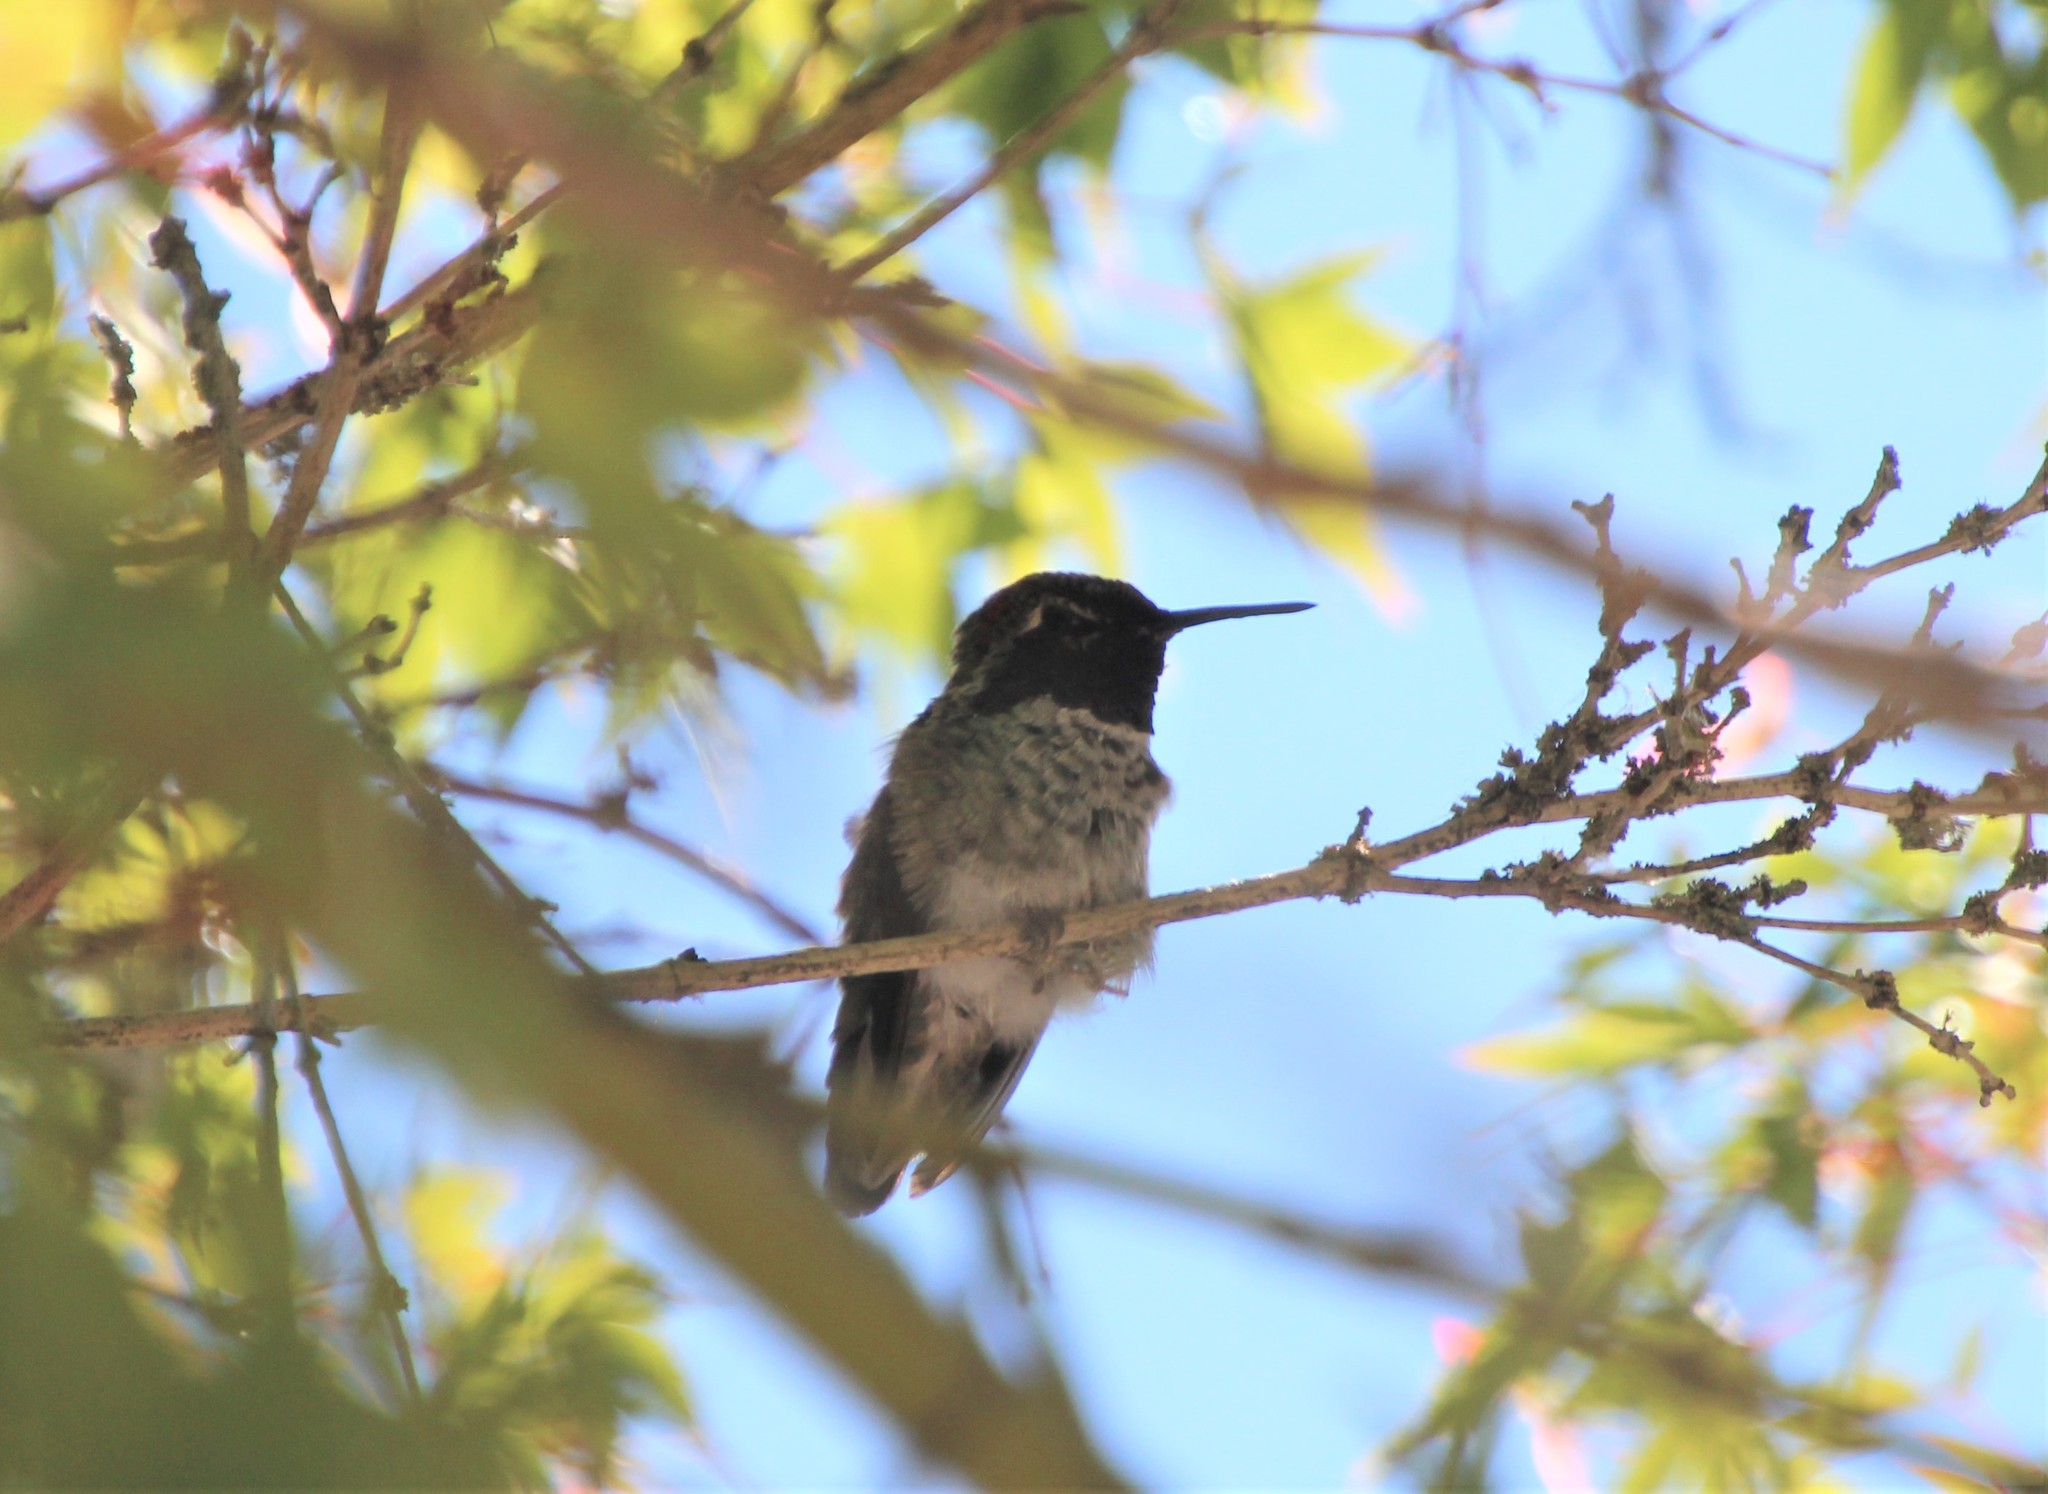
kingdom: Animalia
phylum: Chordata
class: Aves
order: Apodiformes
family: Trochilidae
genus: Calypte
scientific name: Calypte anna
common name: Anna's hummingbird
